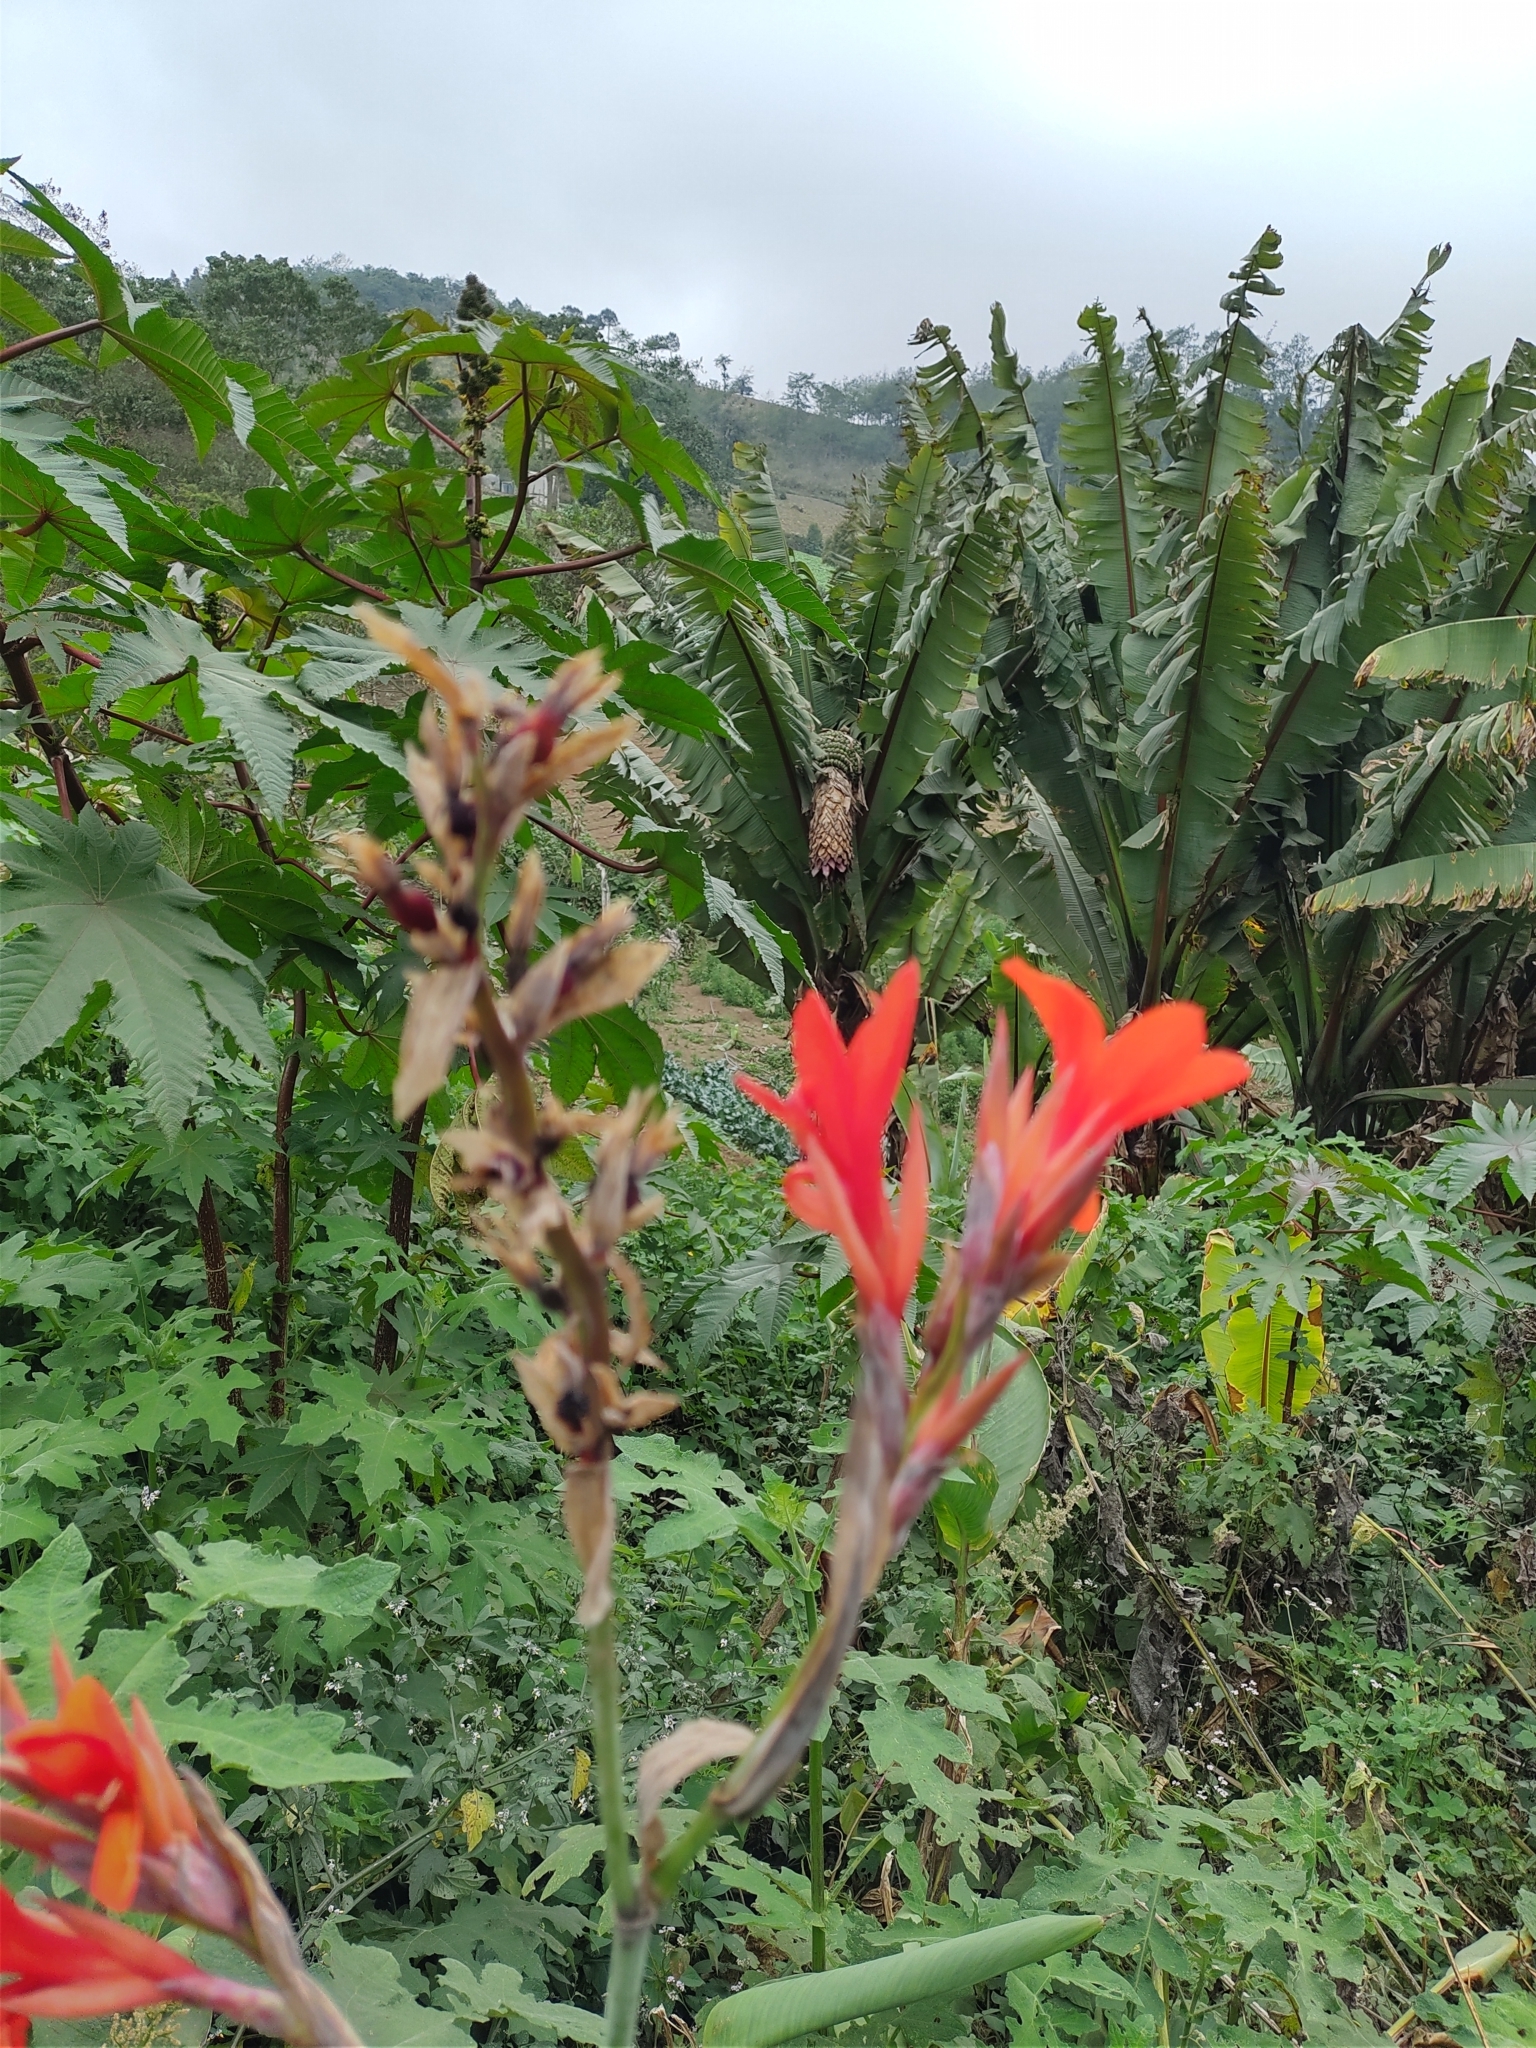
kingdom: Plantae
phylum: Tracheophyta
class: Liliopsida
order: Zingiberales
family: Cannaceae
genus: Canna
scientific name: Canna indica
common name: Indian shot
